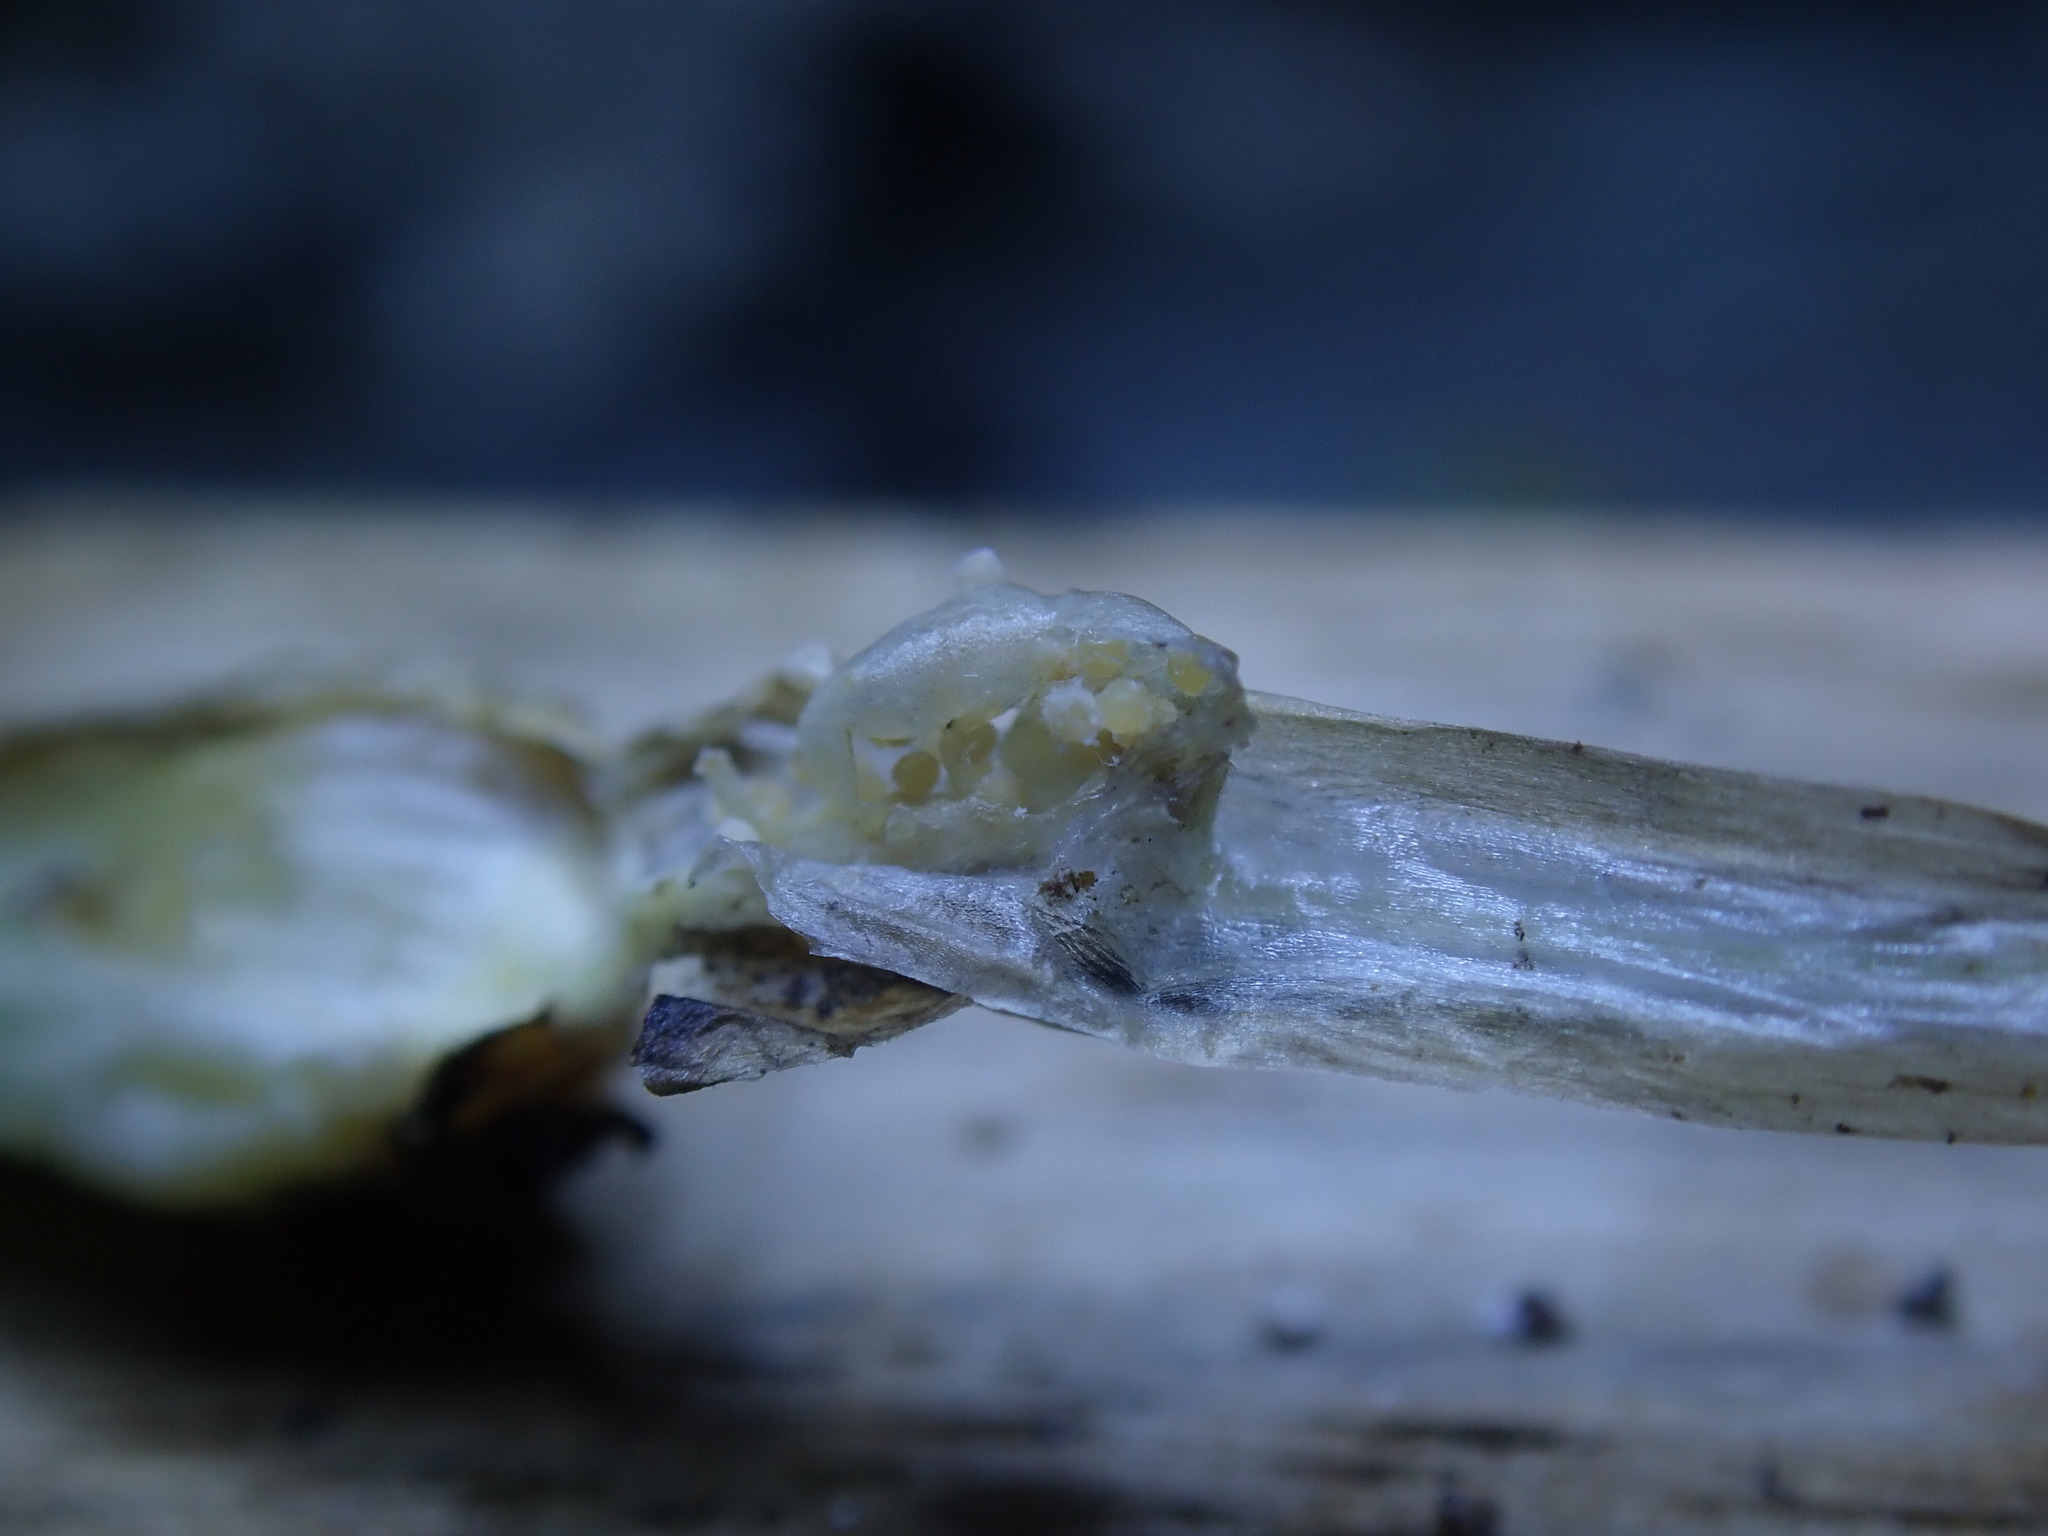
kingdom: Plantae
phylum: Tracheophyta
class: Lycopodiopsida
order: Isoetales
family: Isoetaceae
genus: Isoetes
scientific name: Isoetes echinospora
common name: Spring quillwort
